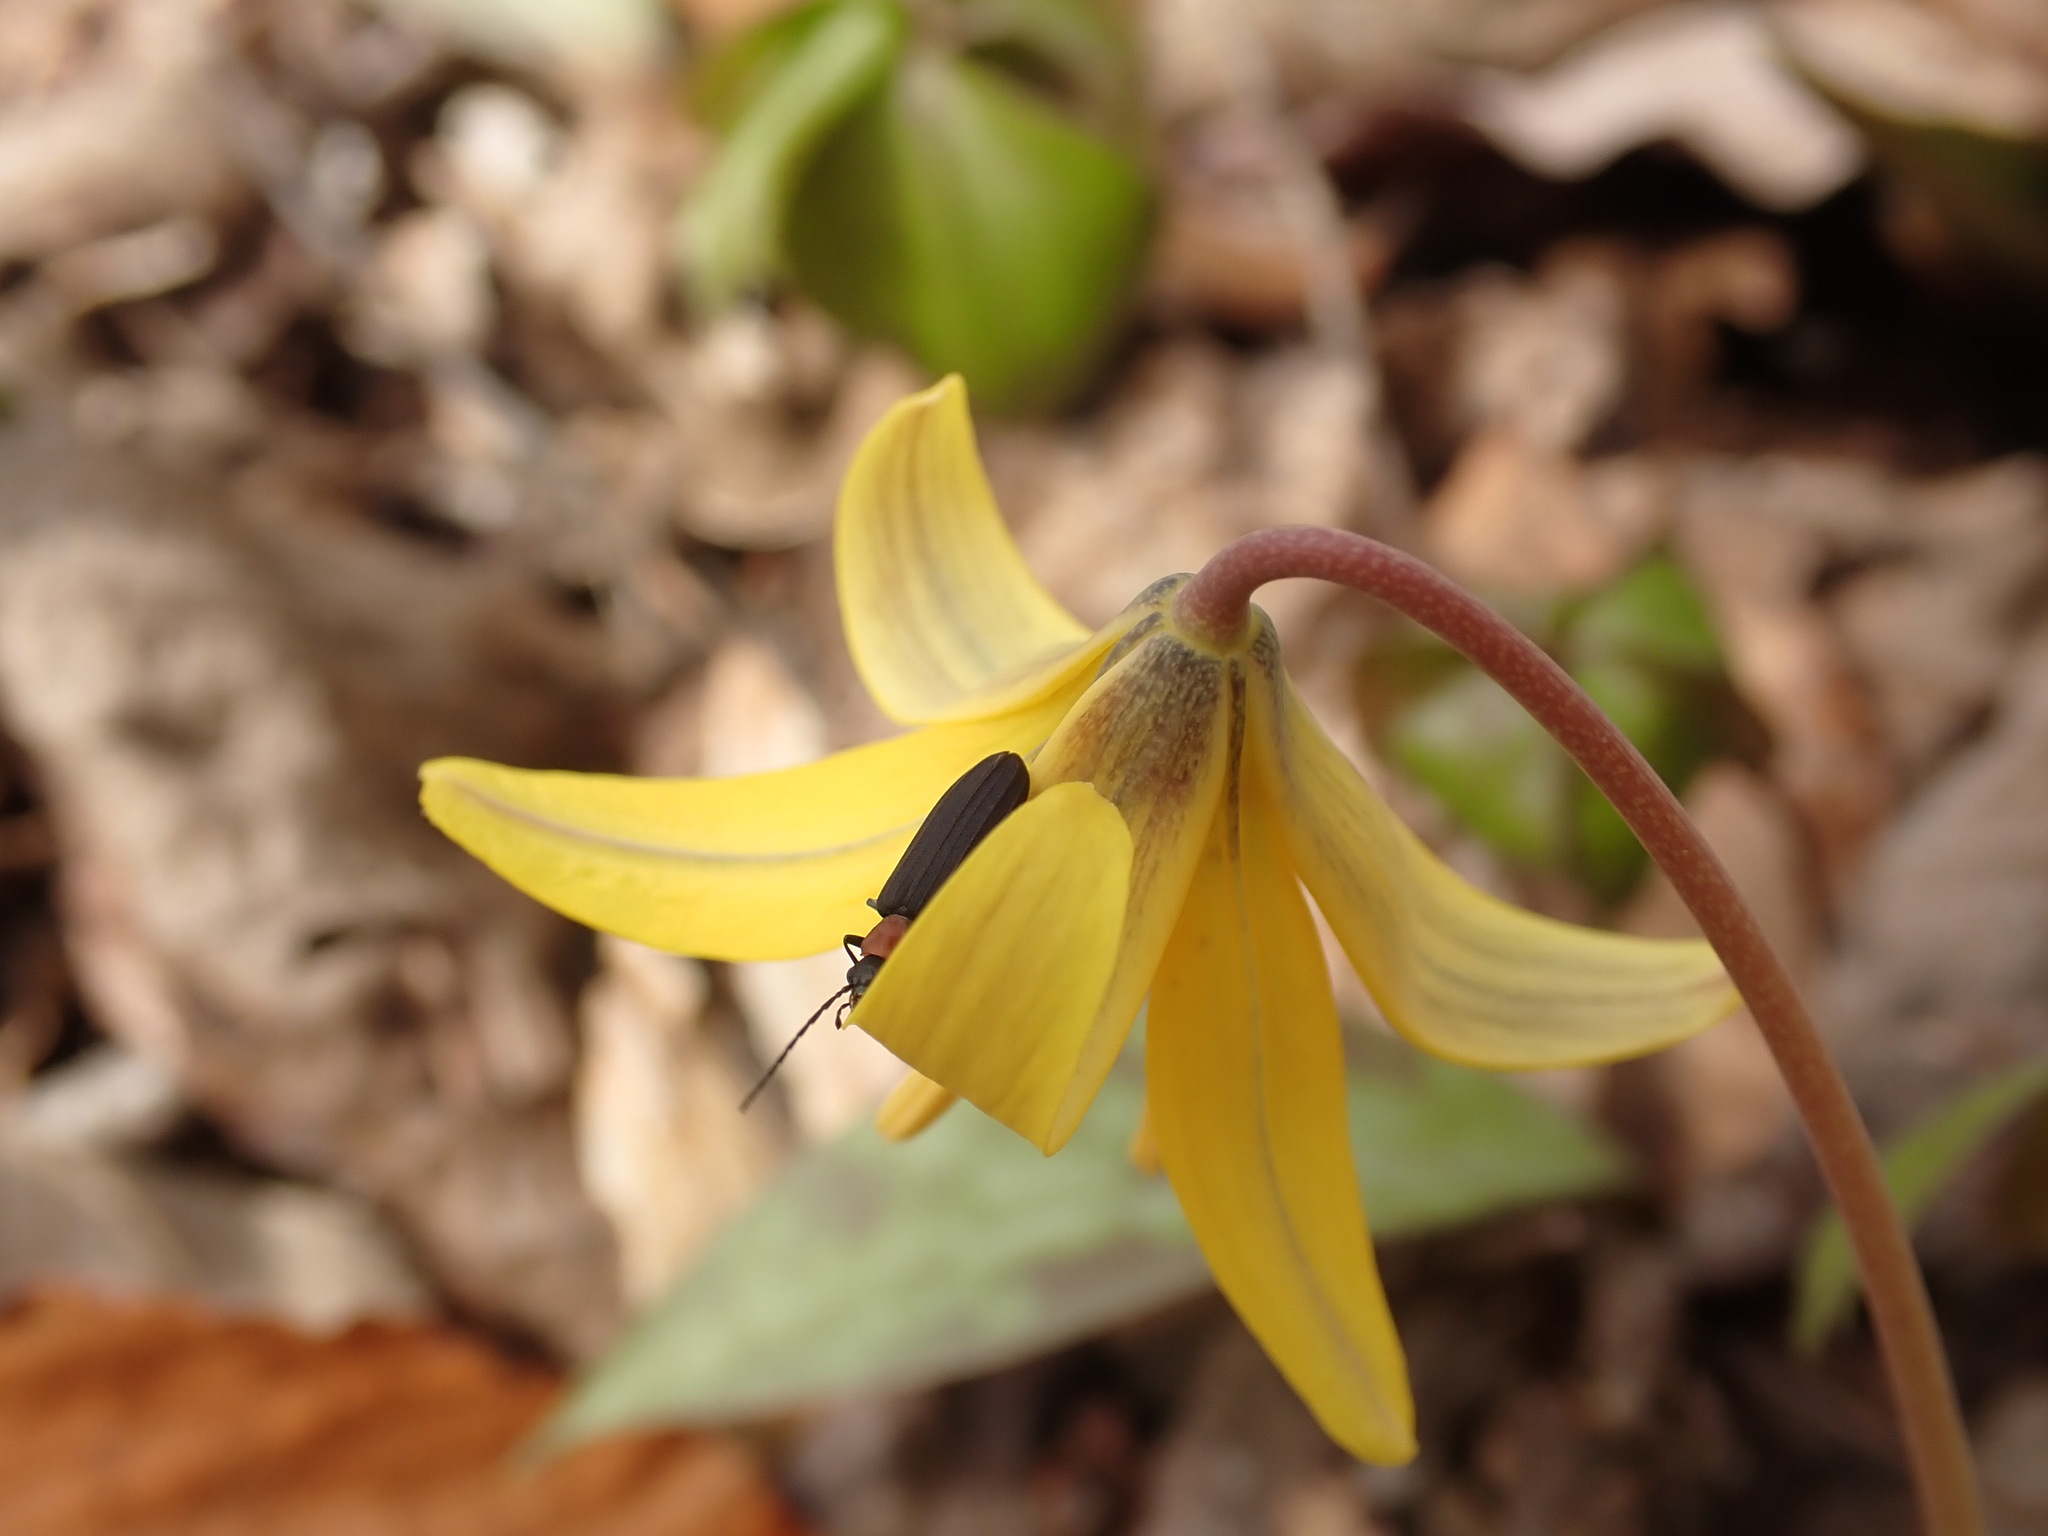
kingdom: Animalia
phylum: Arthropoda
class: Insecta
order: Coleoptera
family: Oedemeridae
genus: Ischnomera
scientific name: Ischnomera
